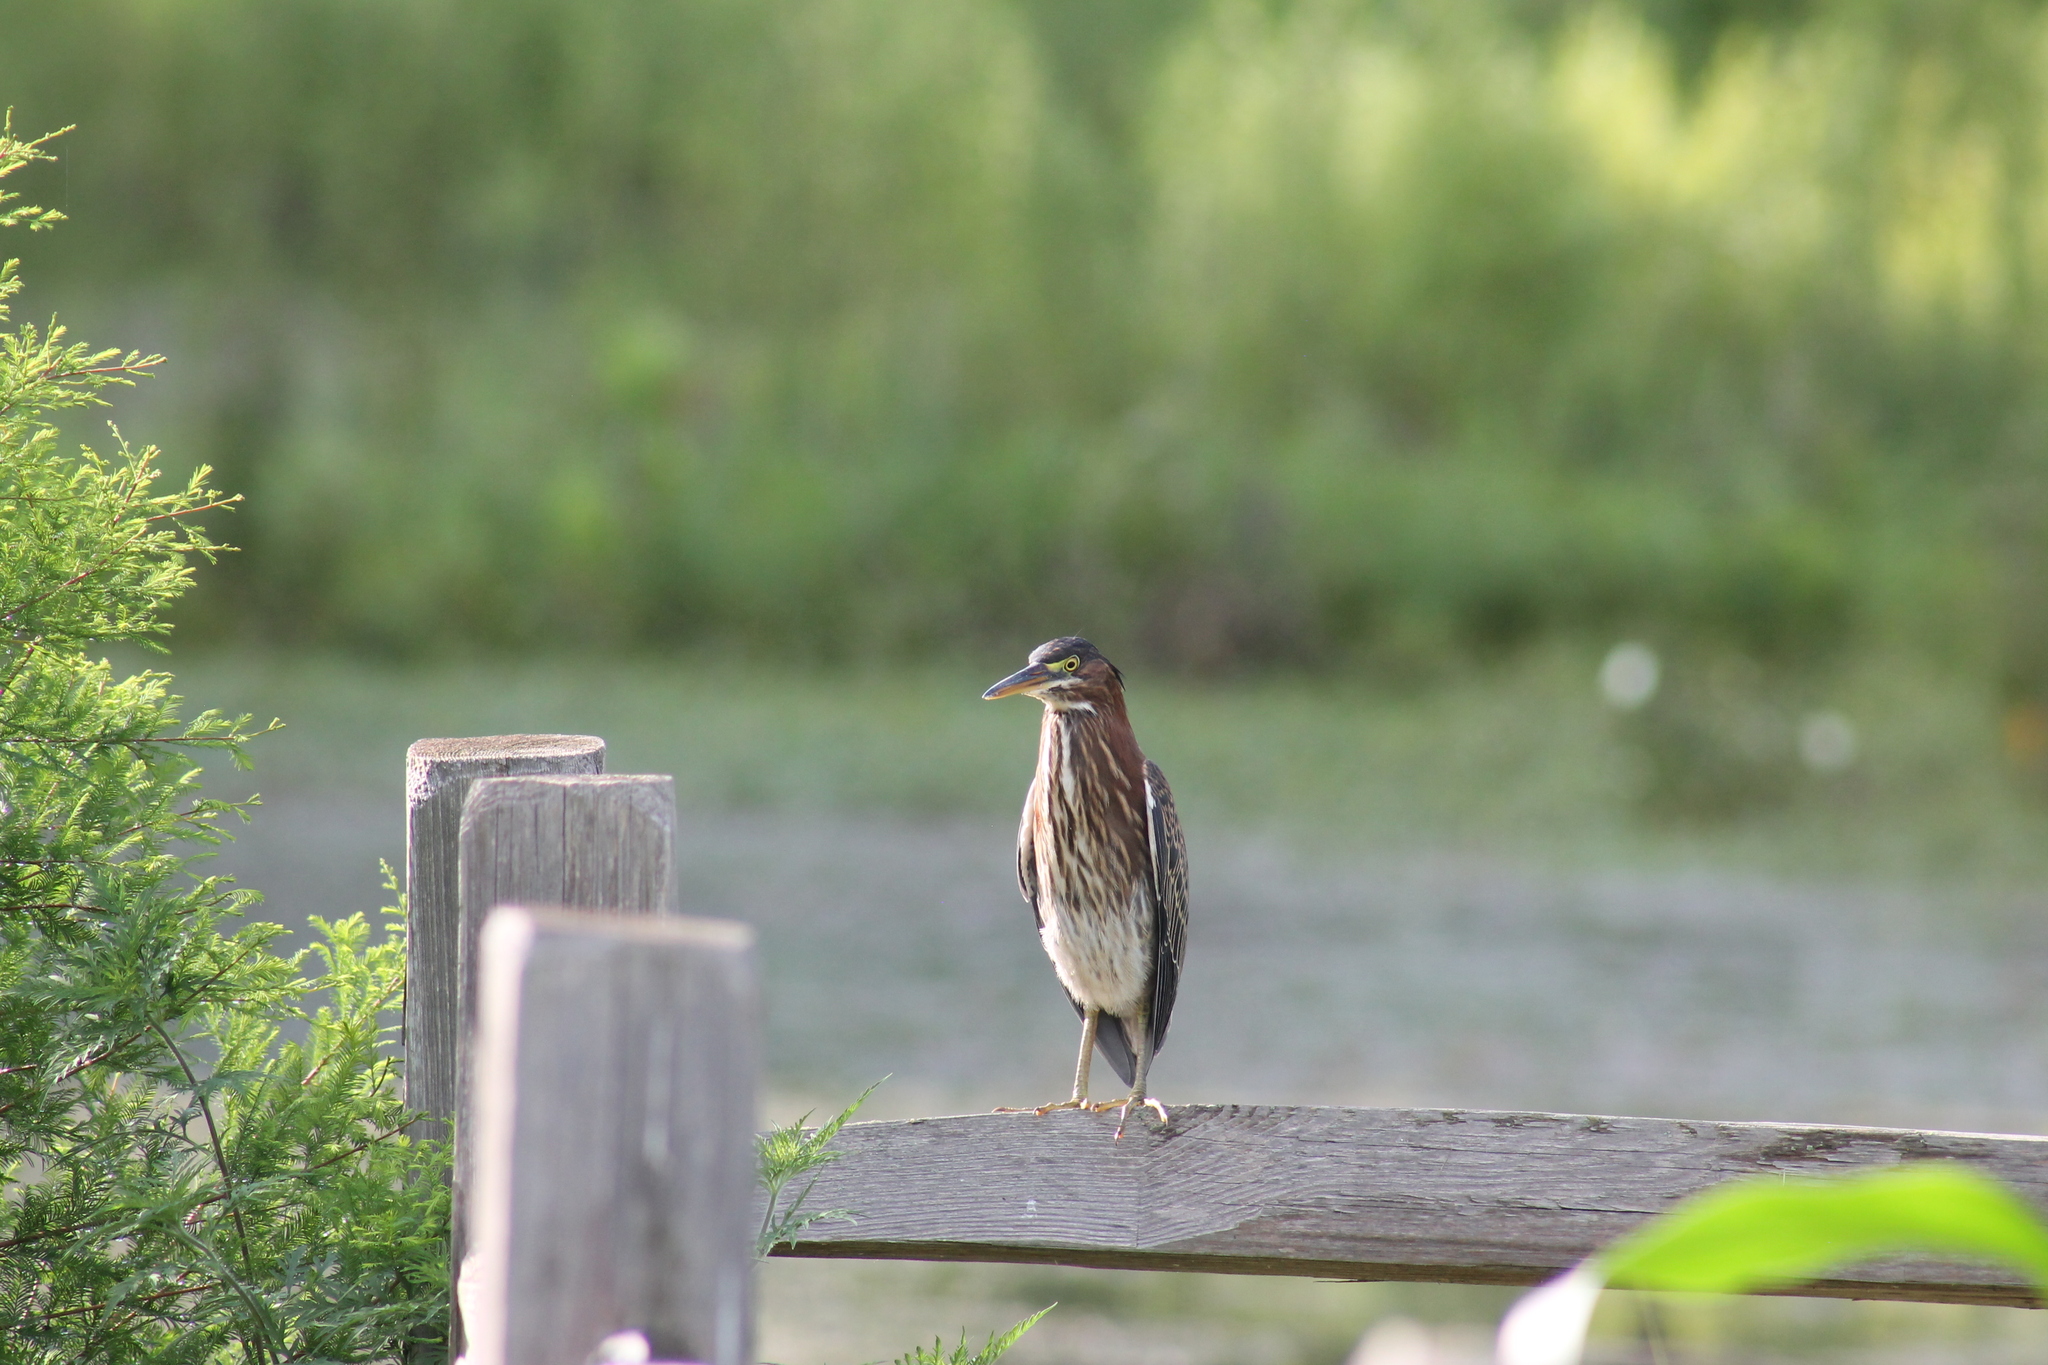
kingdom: Animalia
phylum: Chordata
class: Aves
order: Pelecaniformes
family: Ardeidae
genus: Butorides
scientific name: Butorides virescens
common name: Green heron
